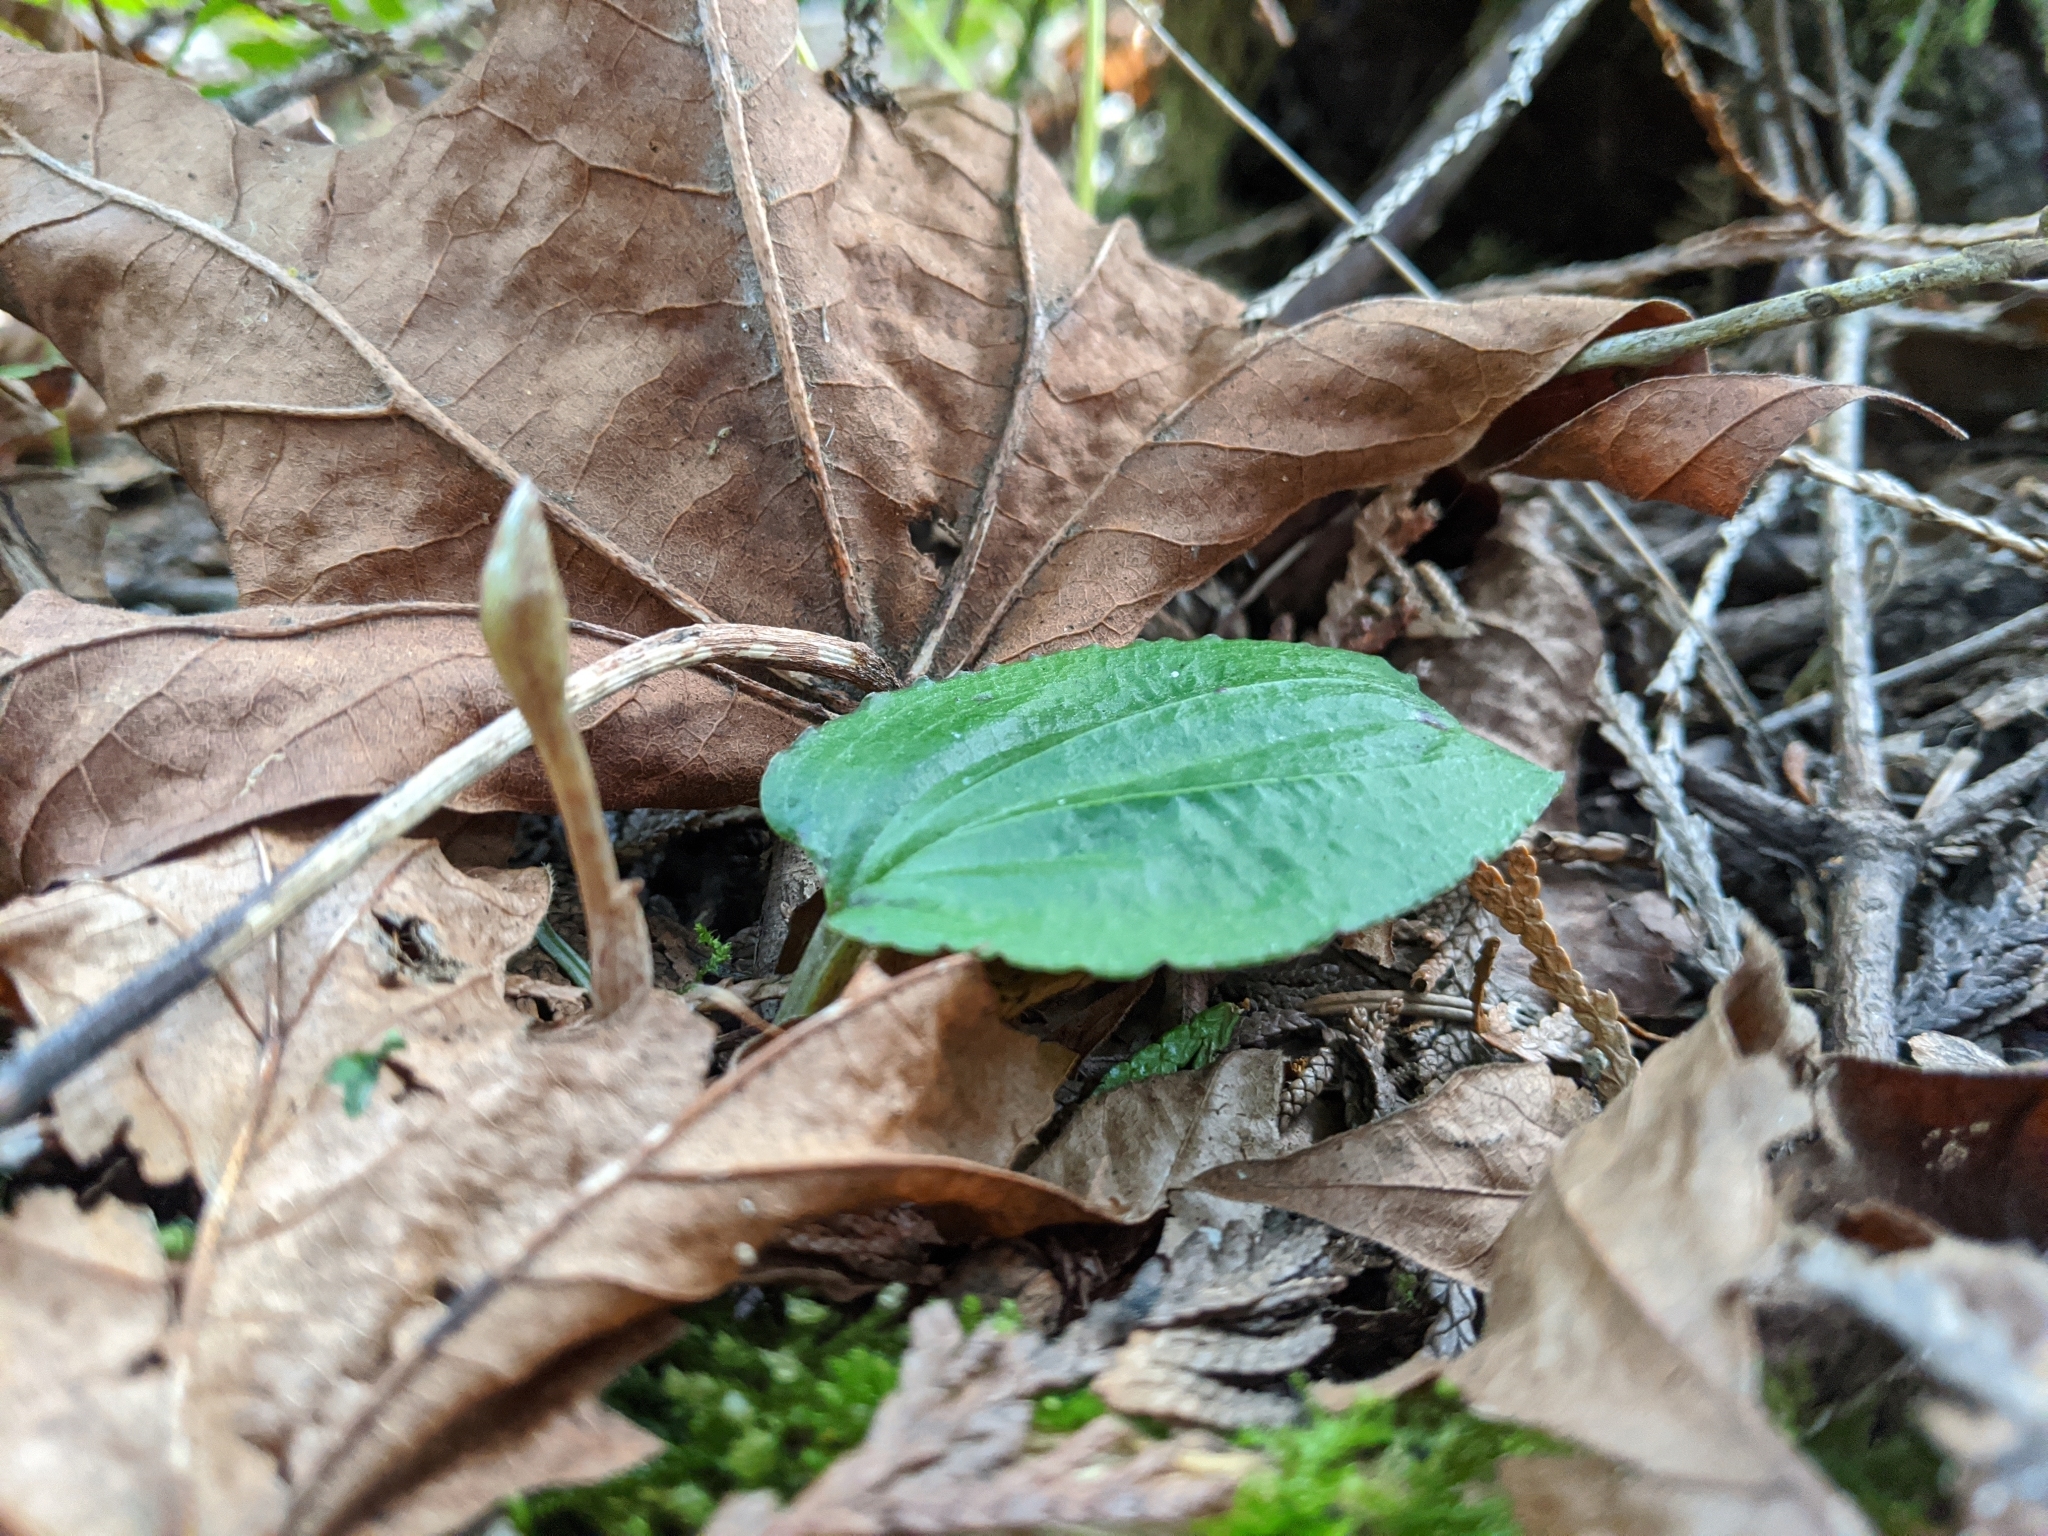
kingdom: Plantae
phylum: Tracheophyta
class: Liliopsida
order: Asparagales
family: Orchidaceae
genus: Calypso
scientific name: Calypso bulbosa
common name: Calypso
